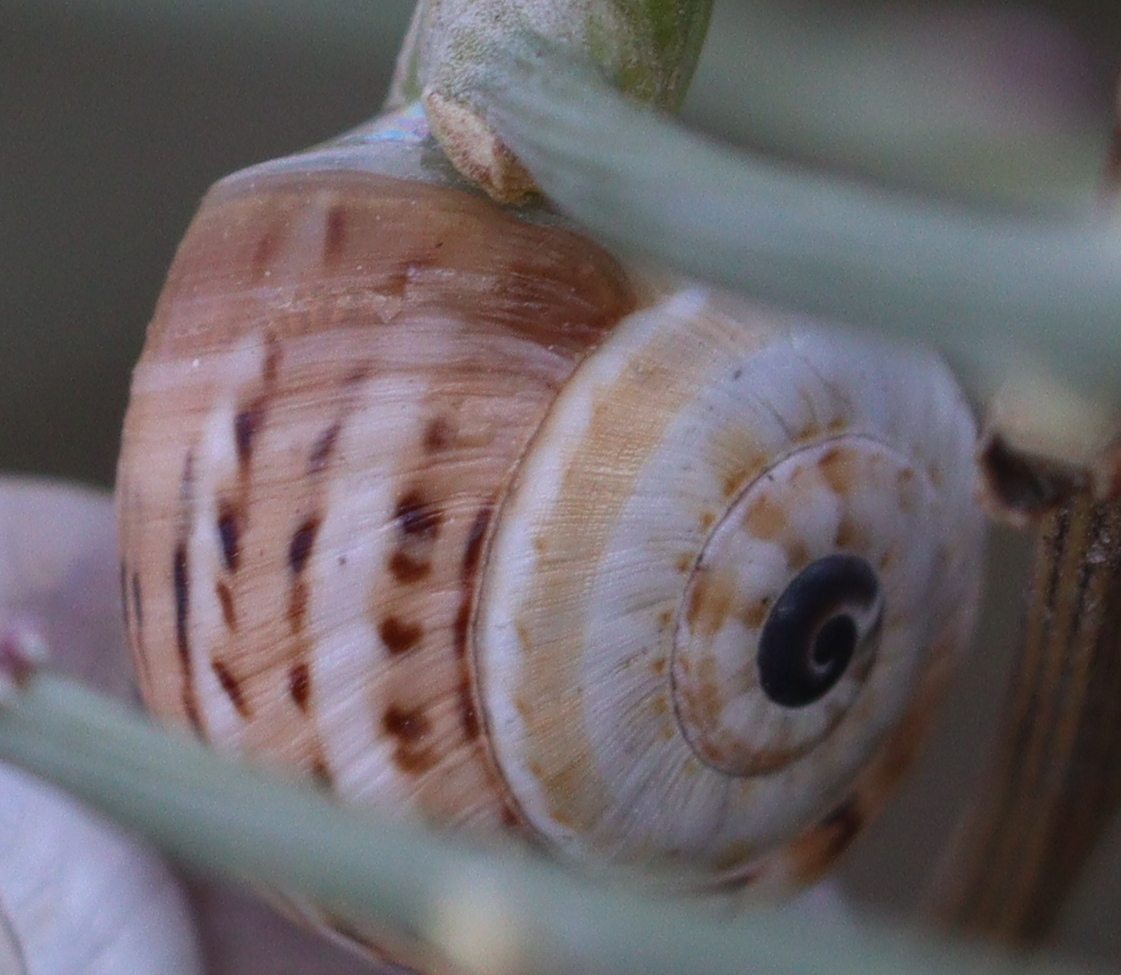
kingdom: Animalia
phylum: Mollusca
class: Gastropoda
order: Stylommatophora
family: Helicidae
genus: Theba
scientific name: Theba pisana
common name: White snail
